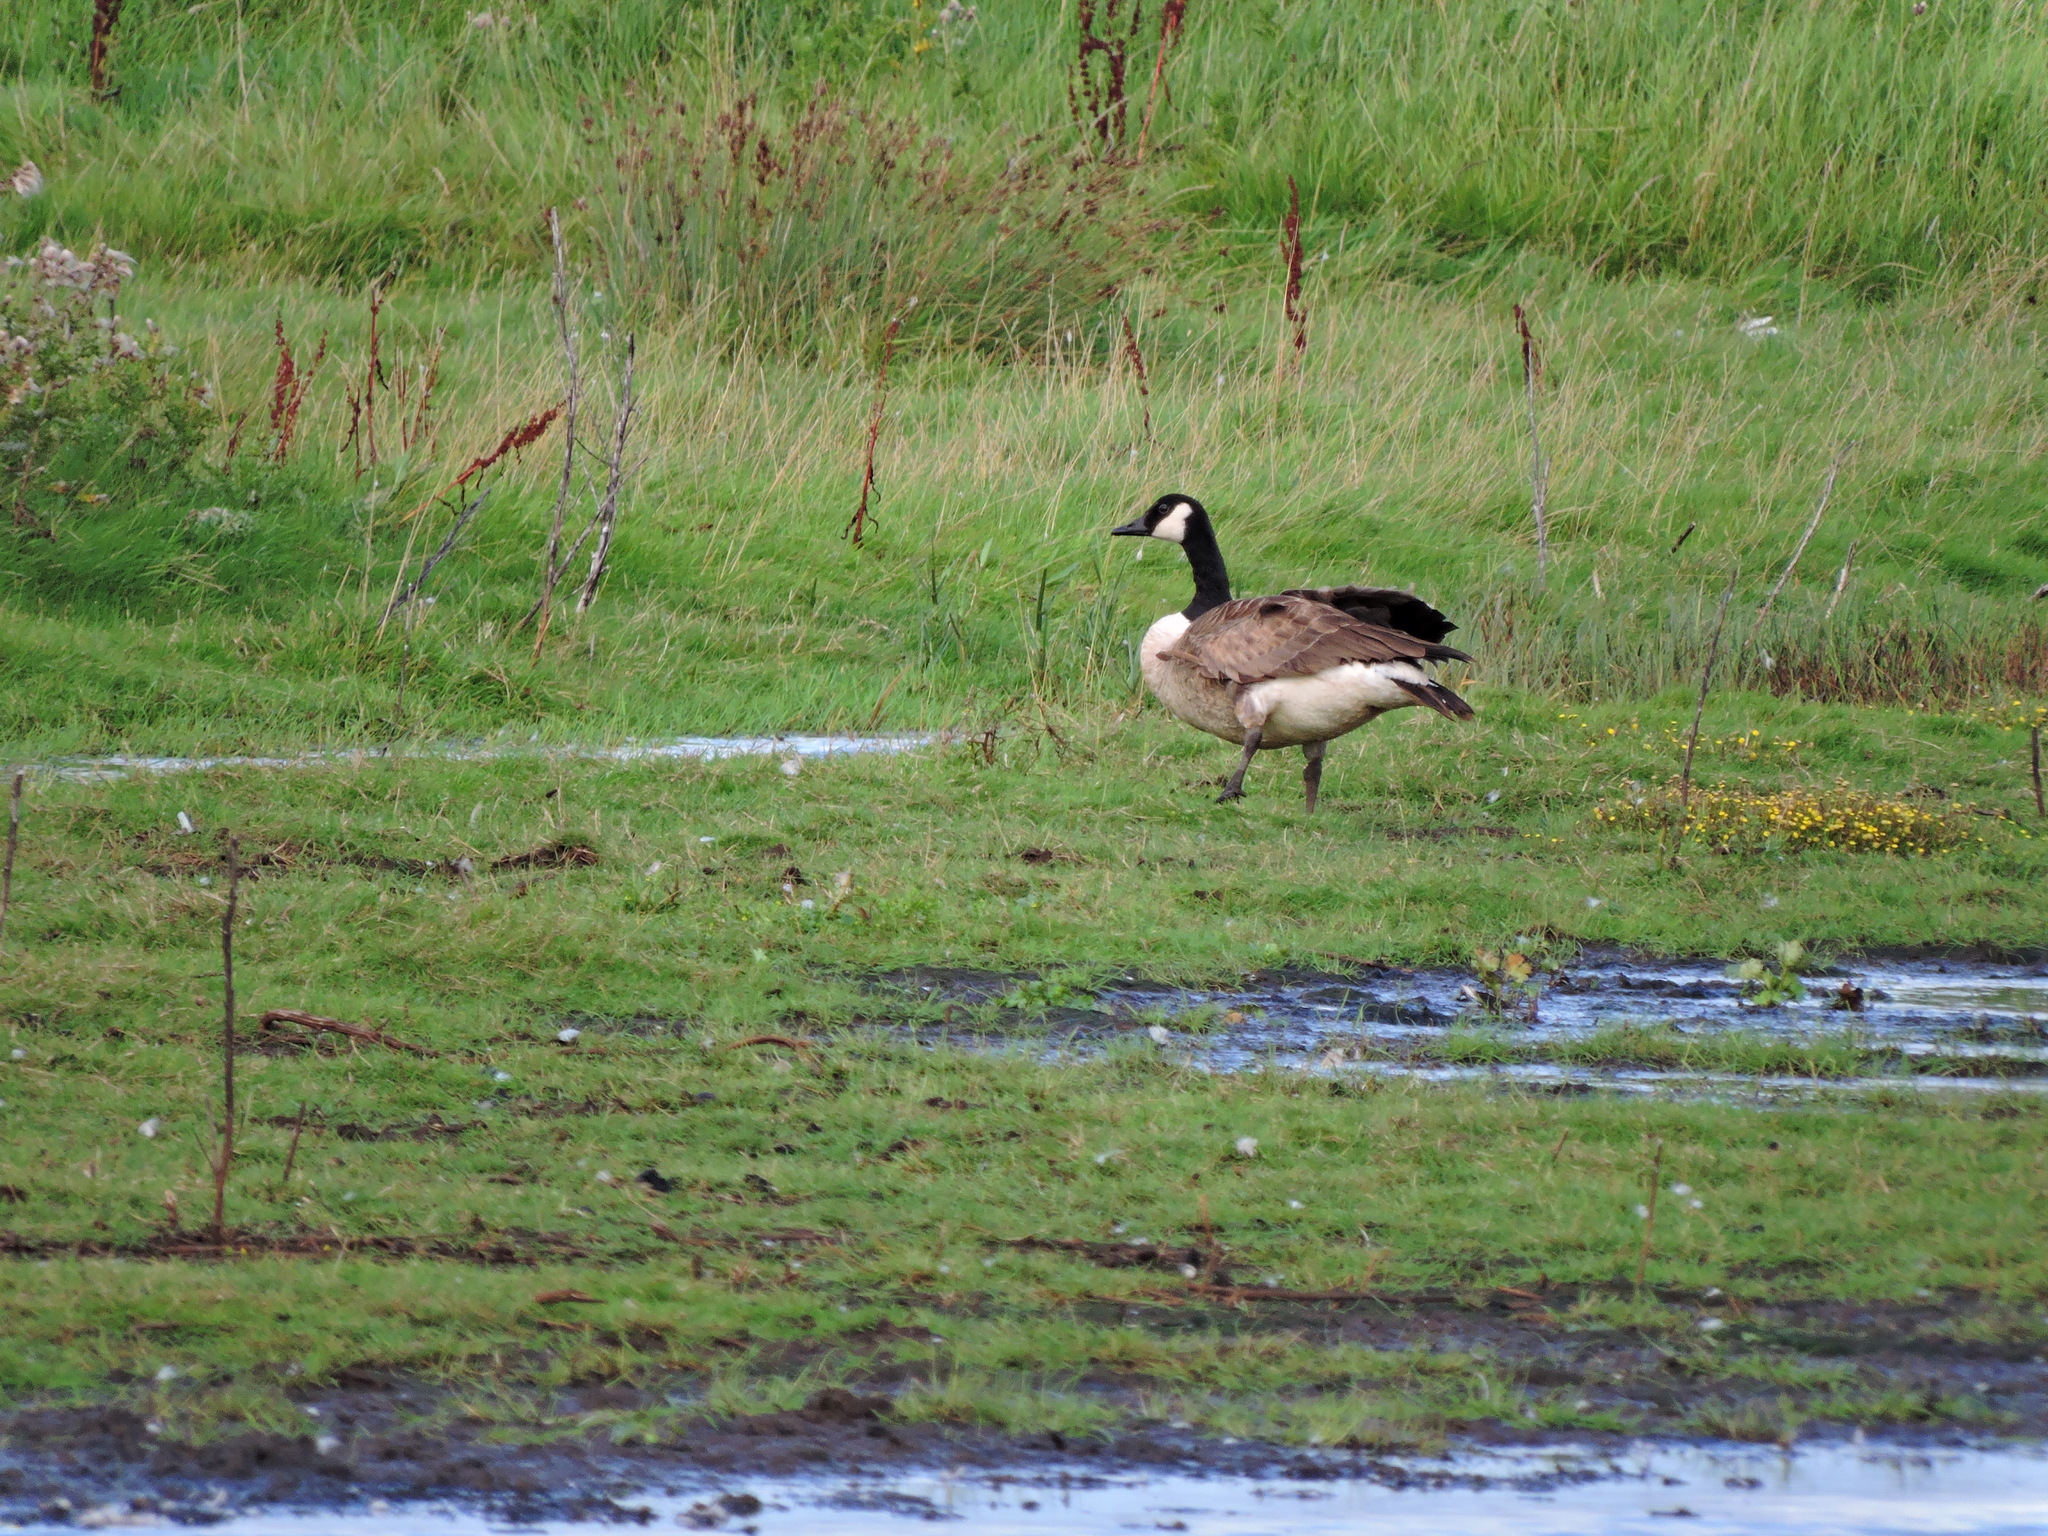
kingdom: Animalia
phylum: Chordata
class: Aves
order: Anseriformes
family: Anatidae
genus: Branta
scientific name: Branta canadensis
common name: Canada goose
